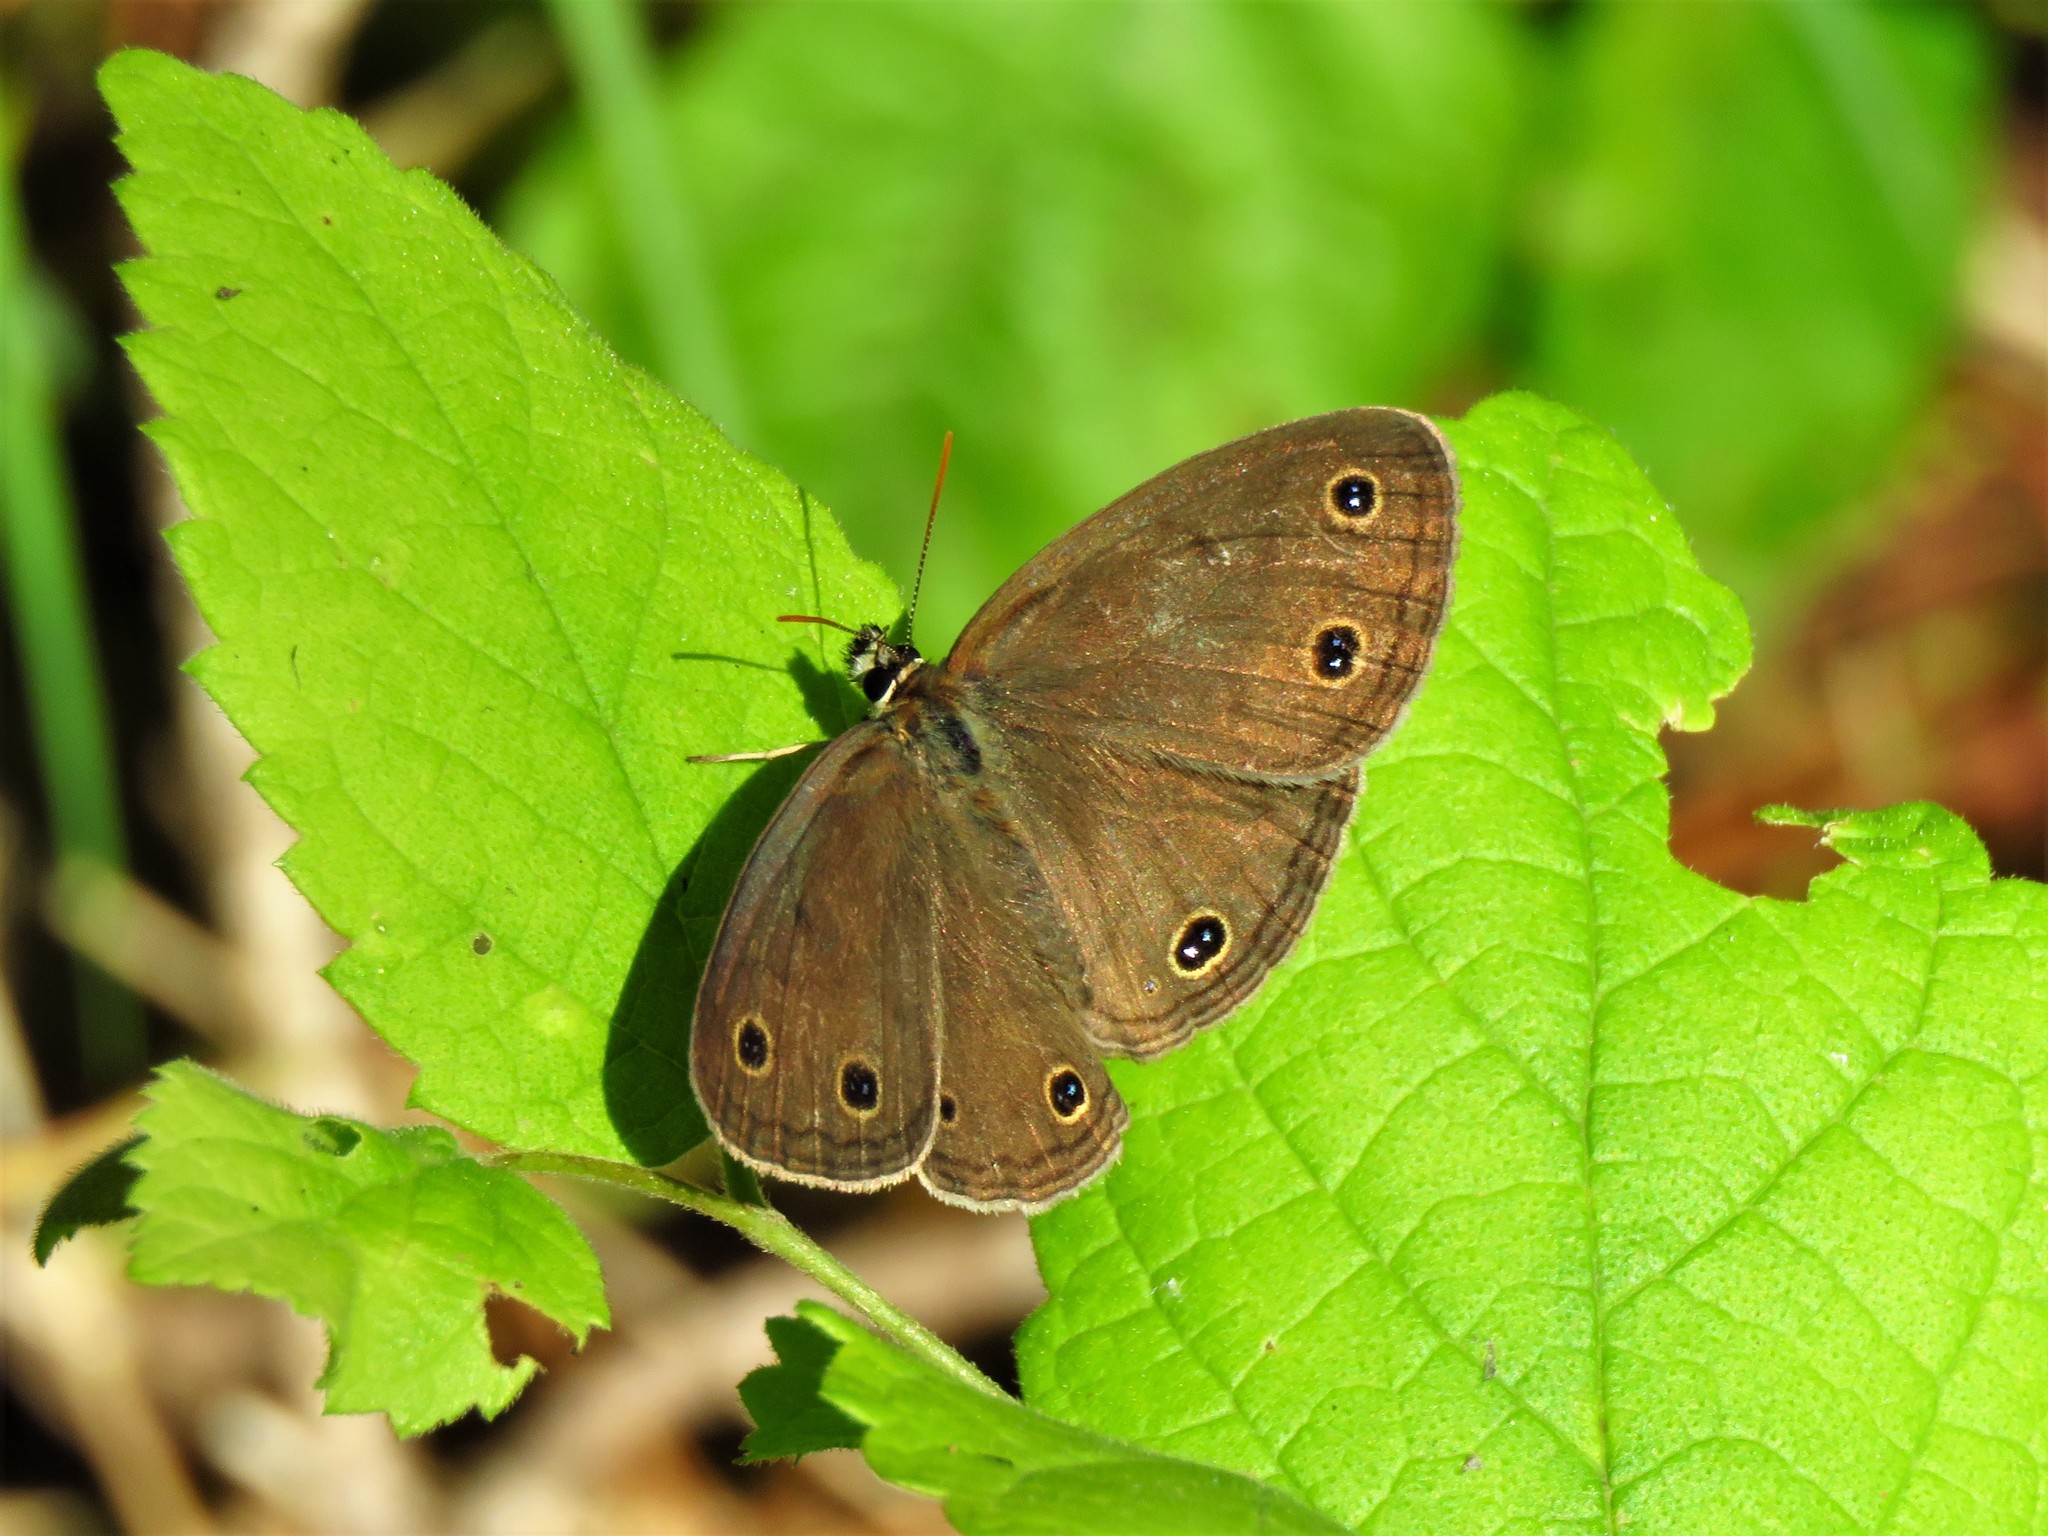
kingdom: Animalia
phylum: Arthropoda
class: Insecta
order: Lepidoptera
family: Nymphalidae
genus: Euptychia
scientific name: Euptychia cymela
